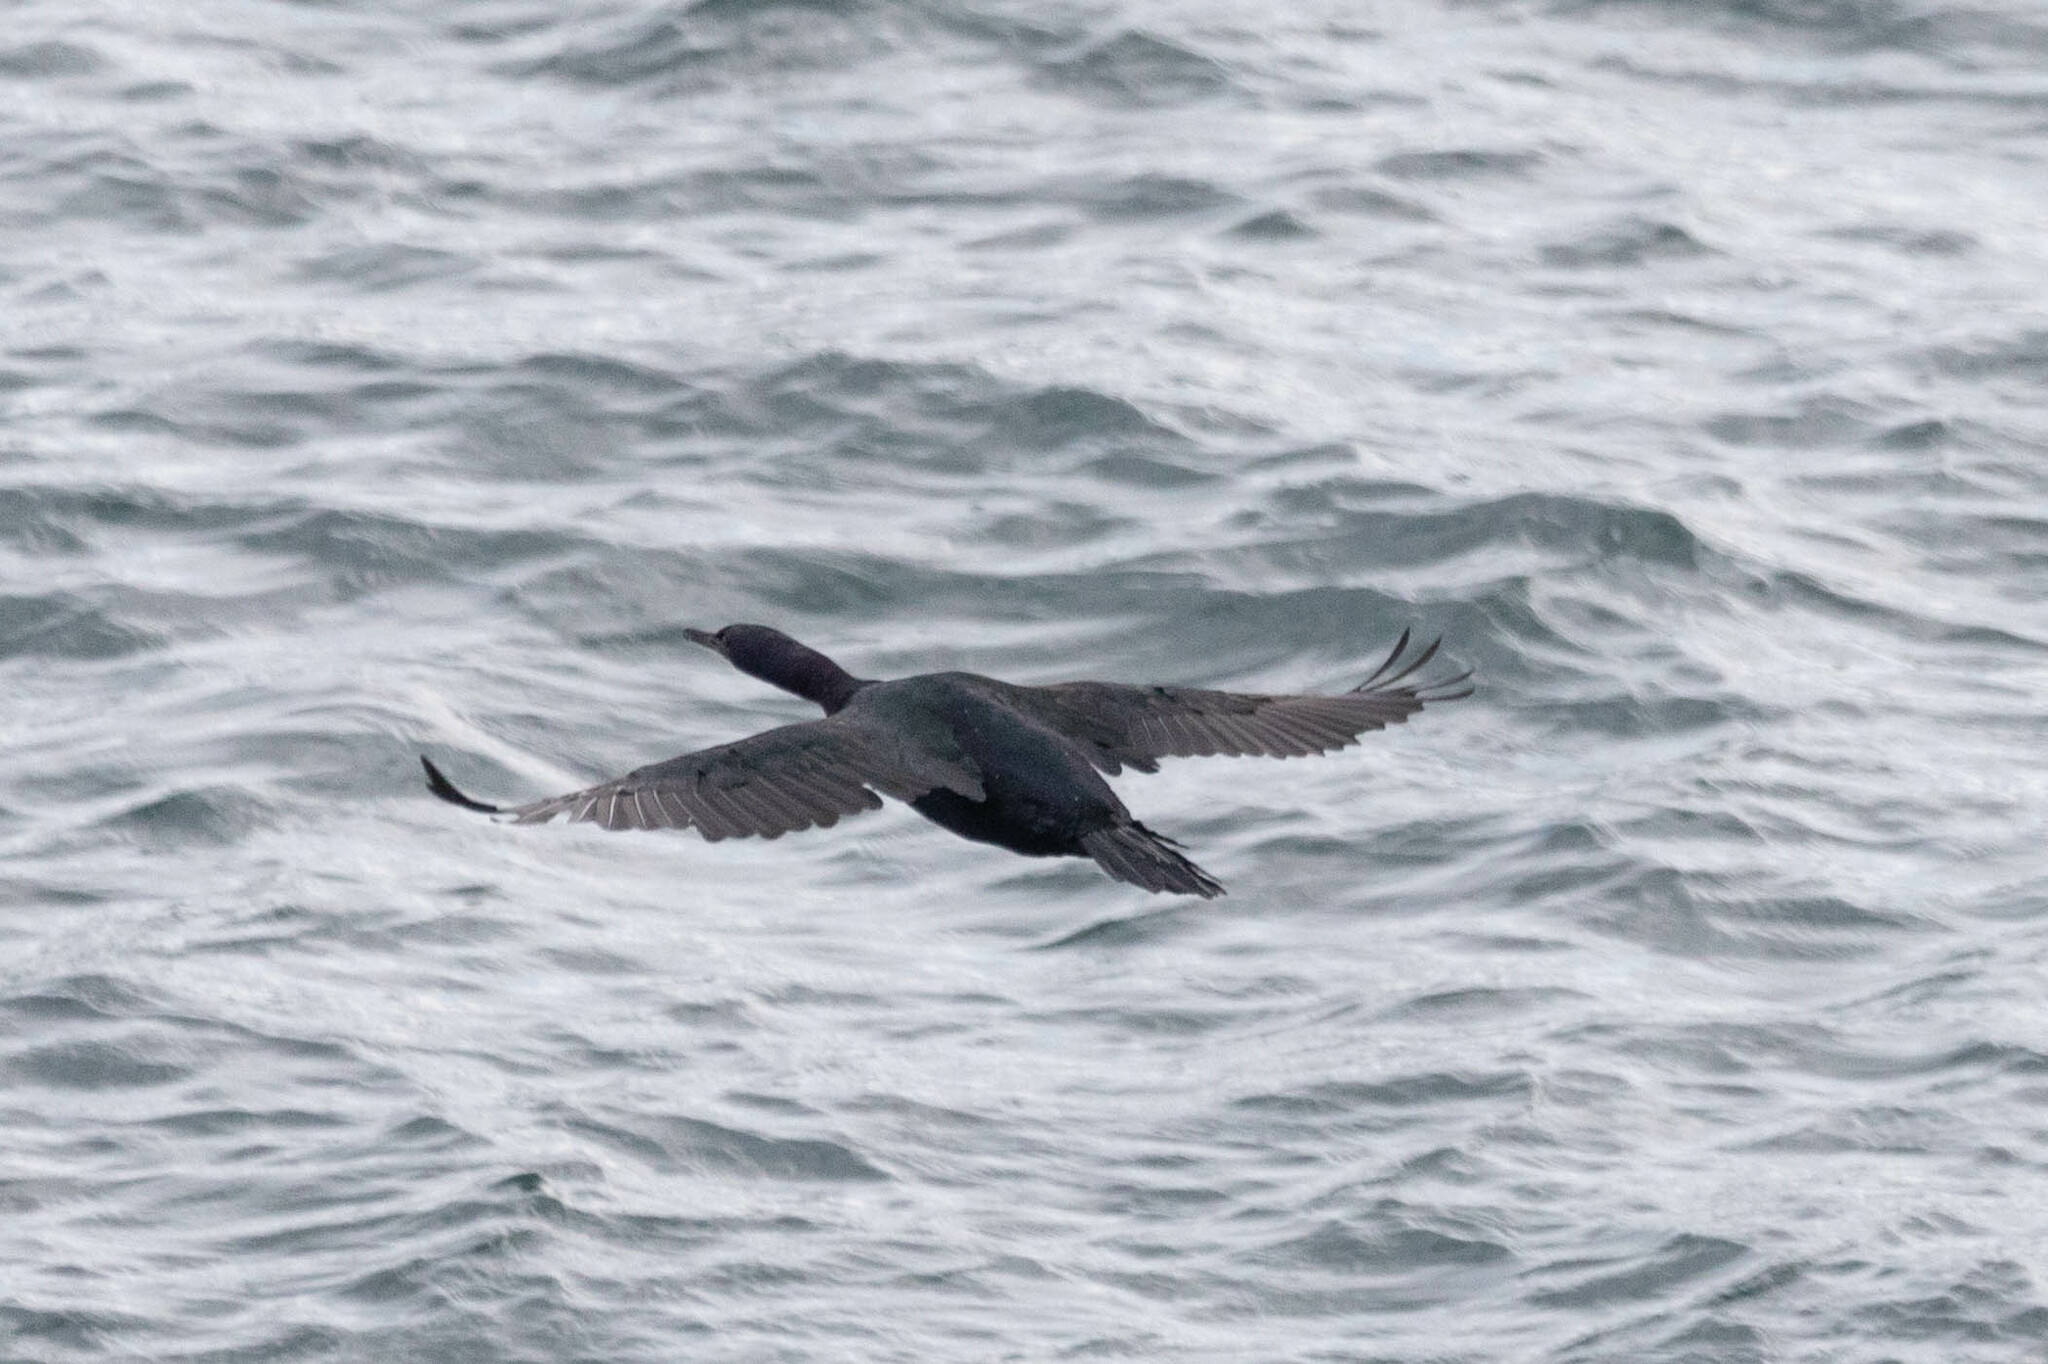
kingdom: Animalia
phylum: Chordata
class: Aves
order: Suliformes
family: Phalacrocoracidae
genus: Phalacrocorax
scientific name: Phalacrocorax pelagicus
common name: Pelagic cormorant
